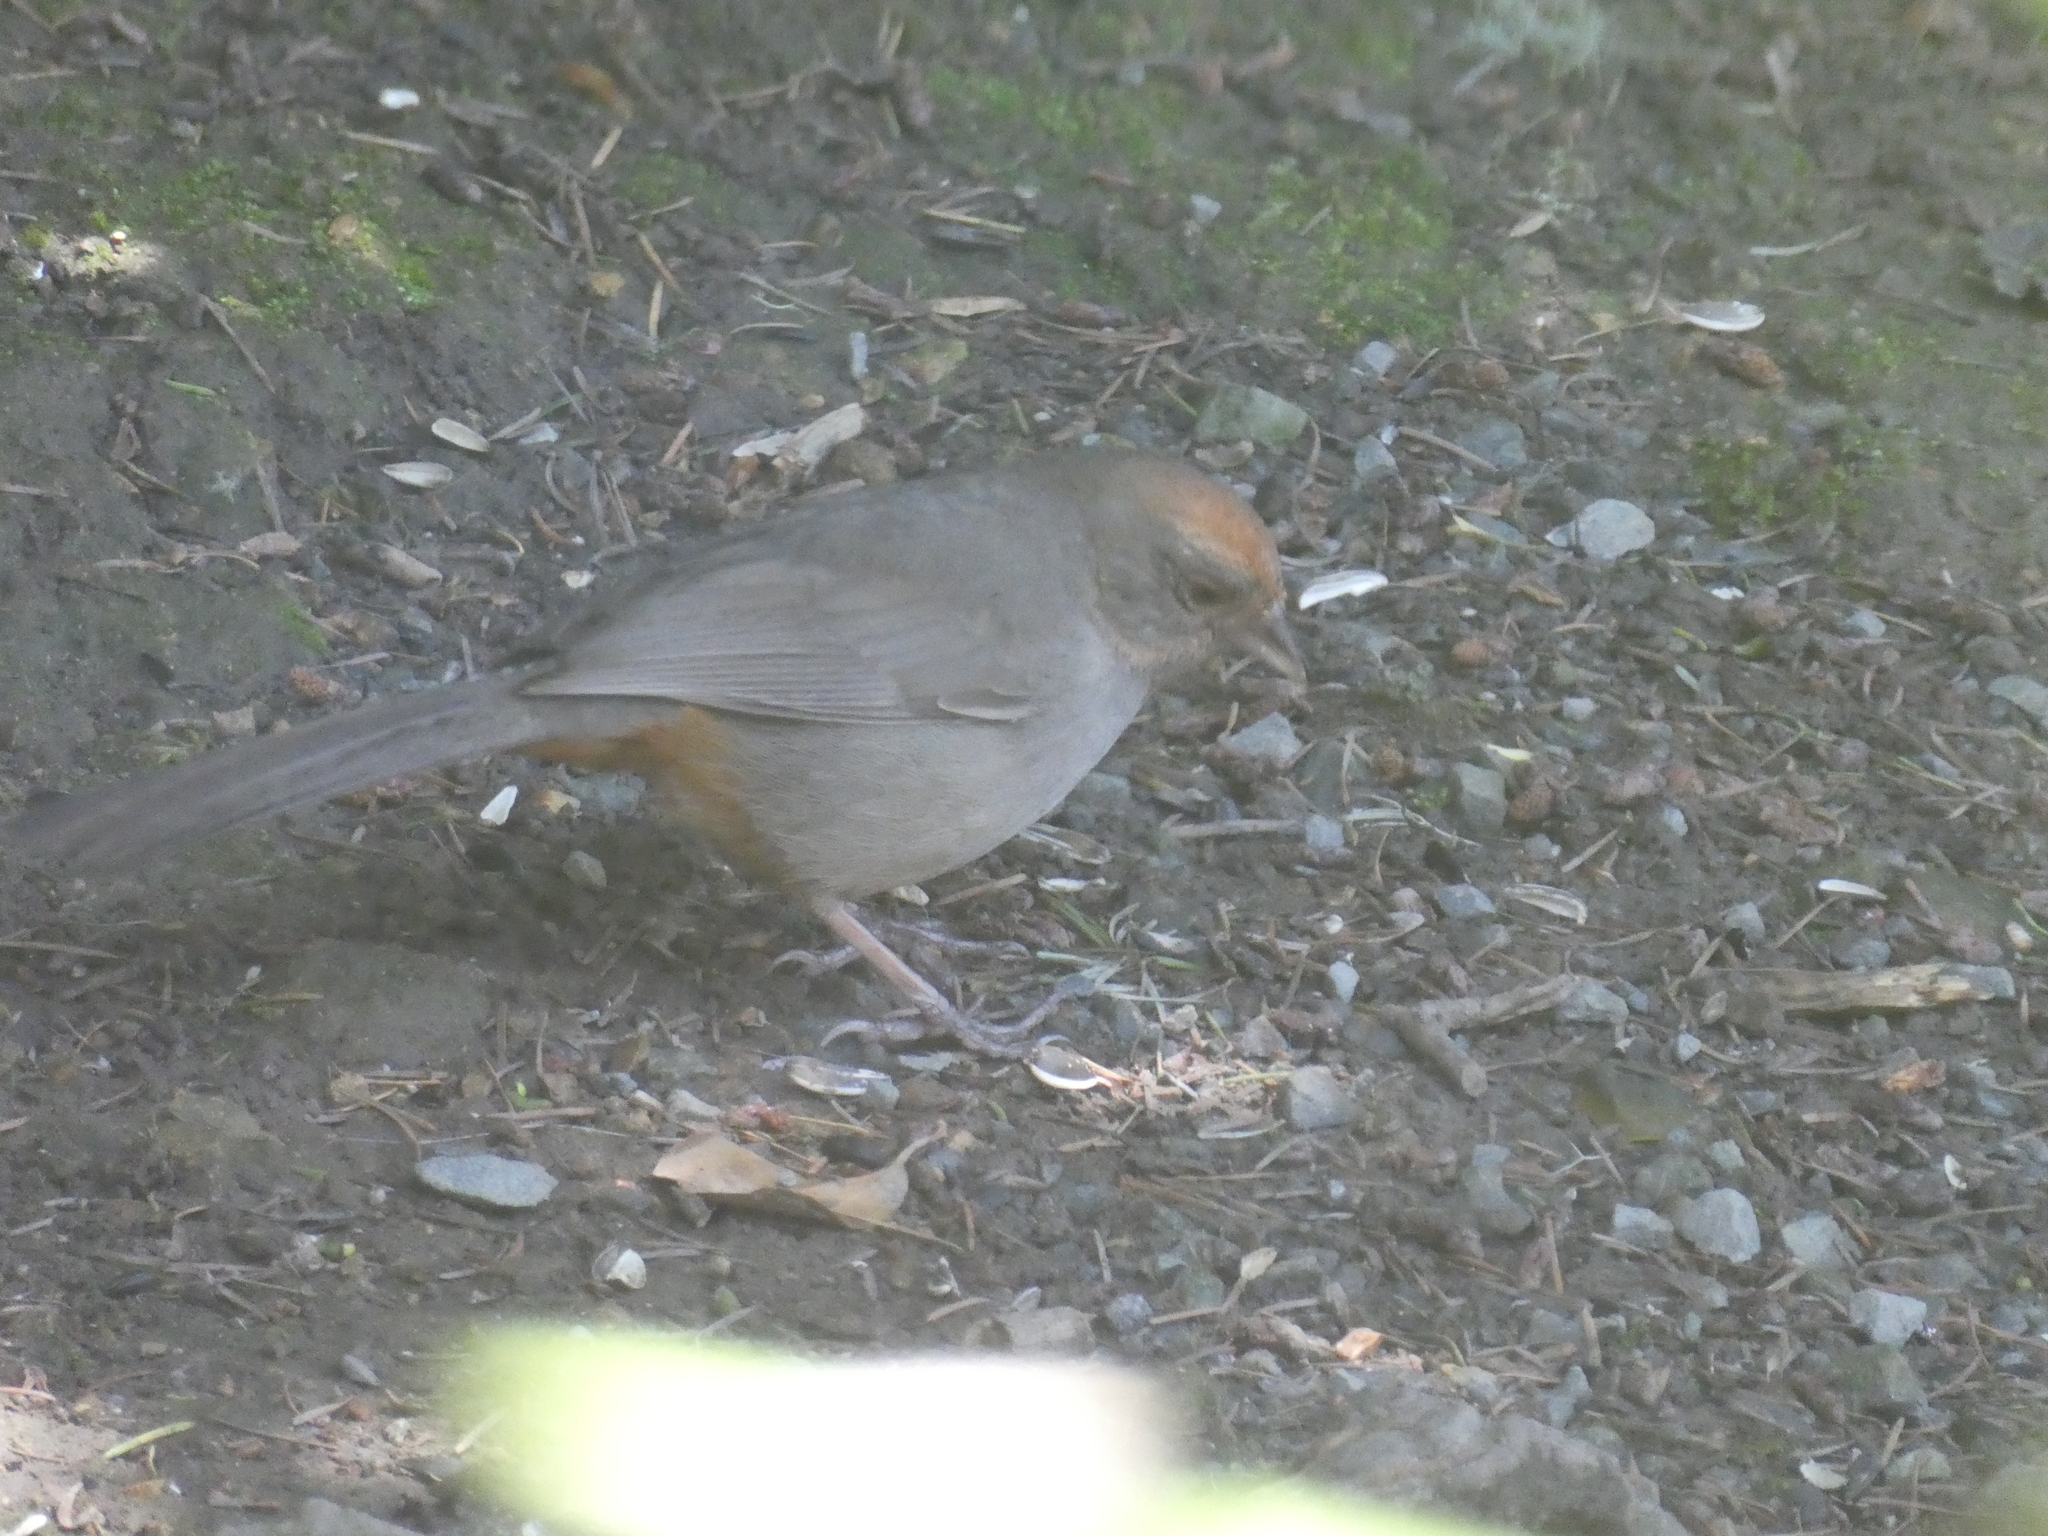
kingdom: Animalia
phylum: Chordata
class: Aves
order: Passeriformes
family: Passerellidae
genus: Melozone
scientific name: Melozone crissalis
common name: California towhee
